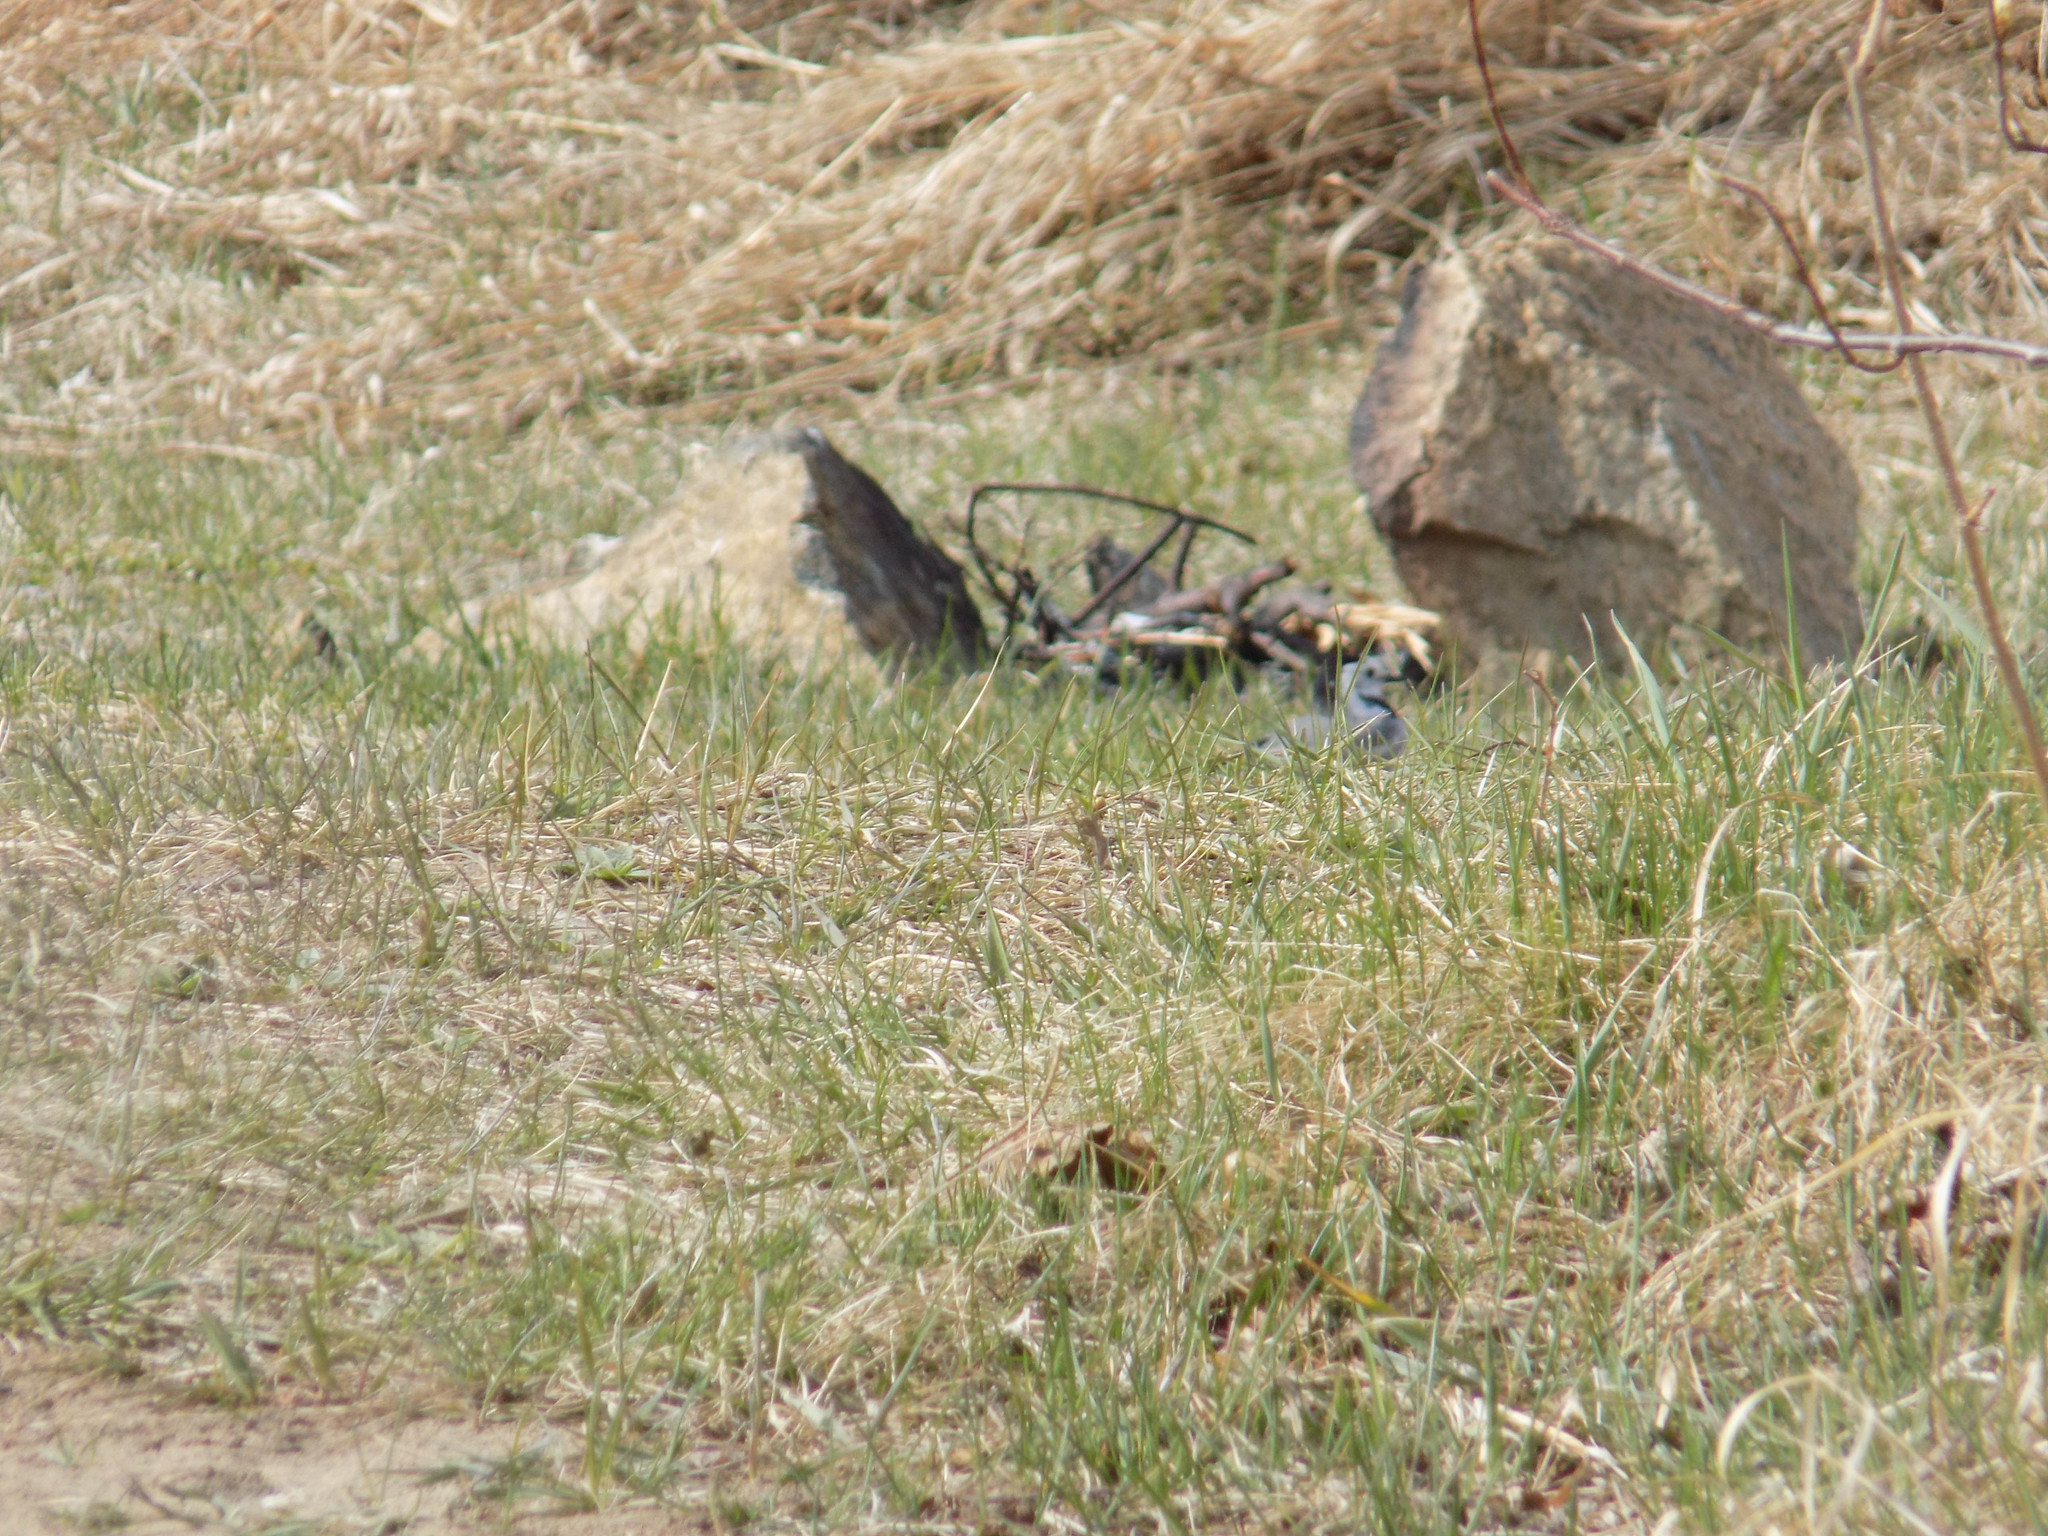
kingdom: Animalia
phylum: Chordata
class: Aves
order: Passeriformes
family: Motacillidae
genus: Motacilla
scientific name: Motacilla alba
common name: White wagtail
